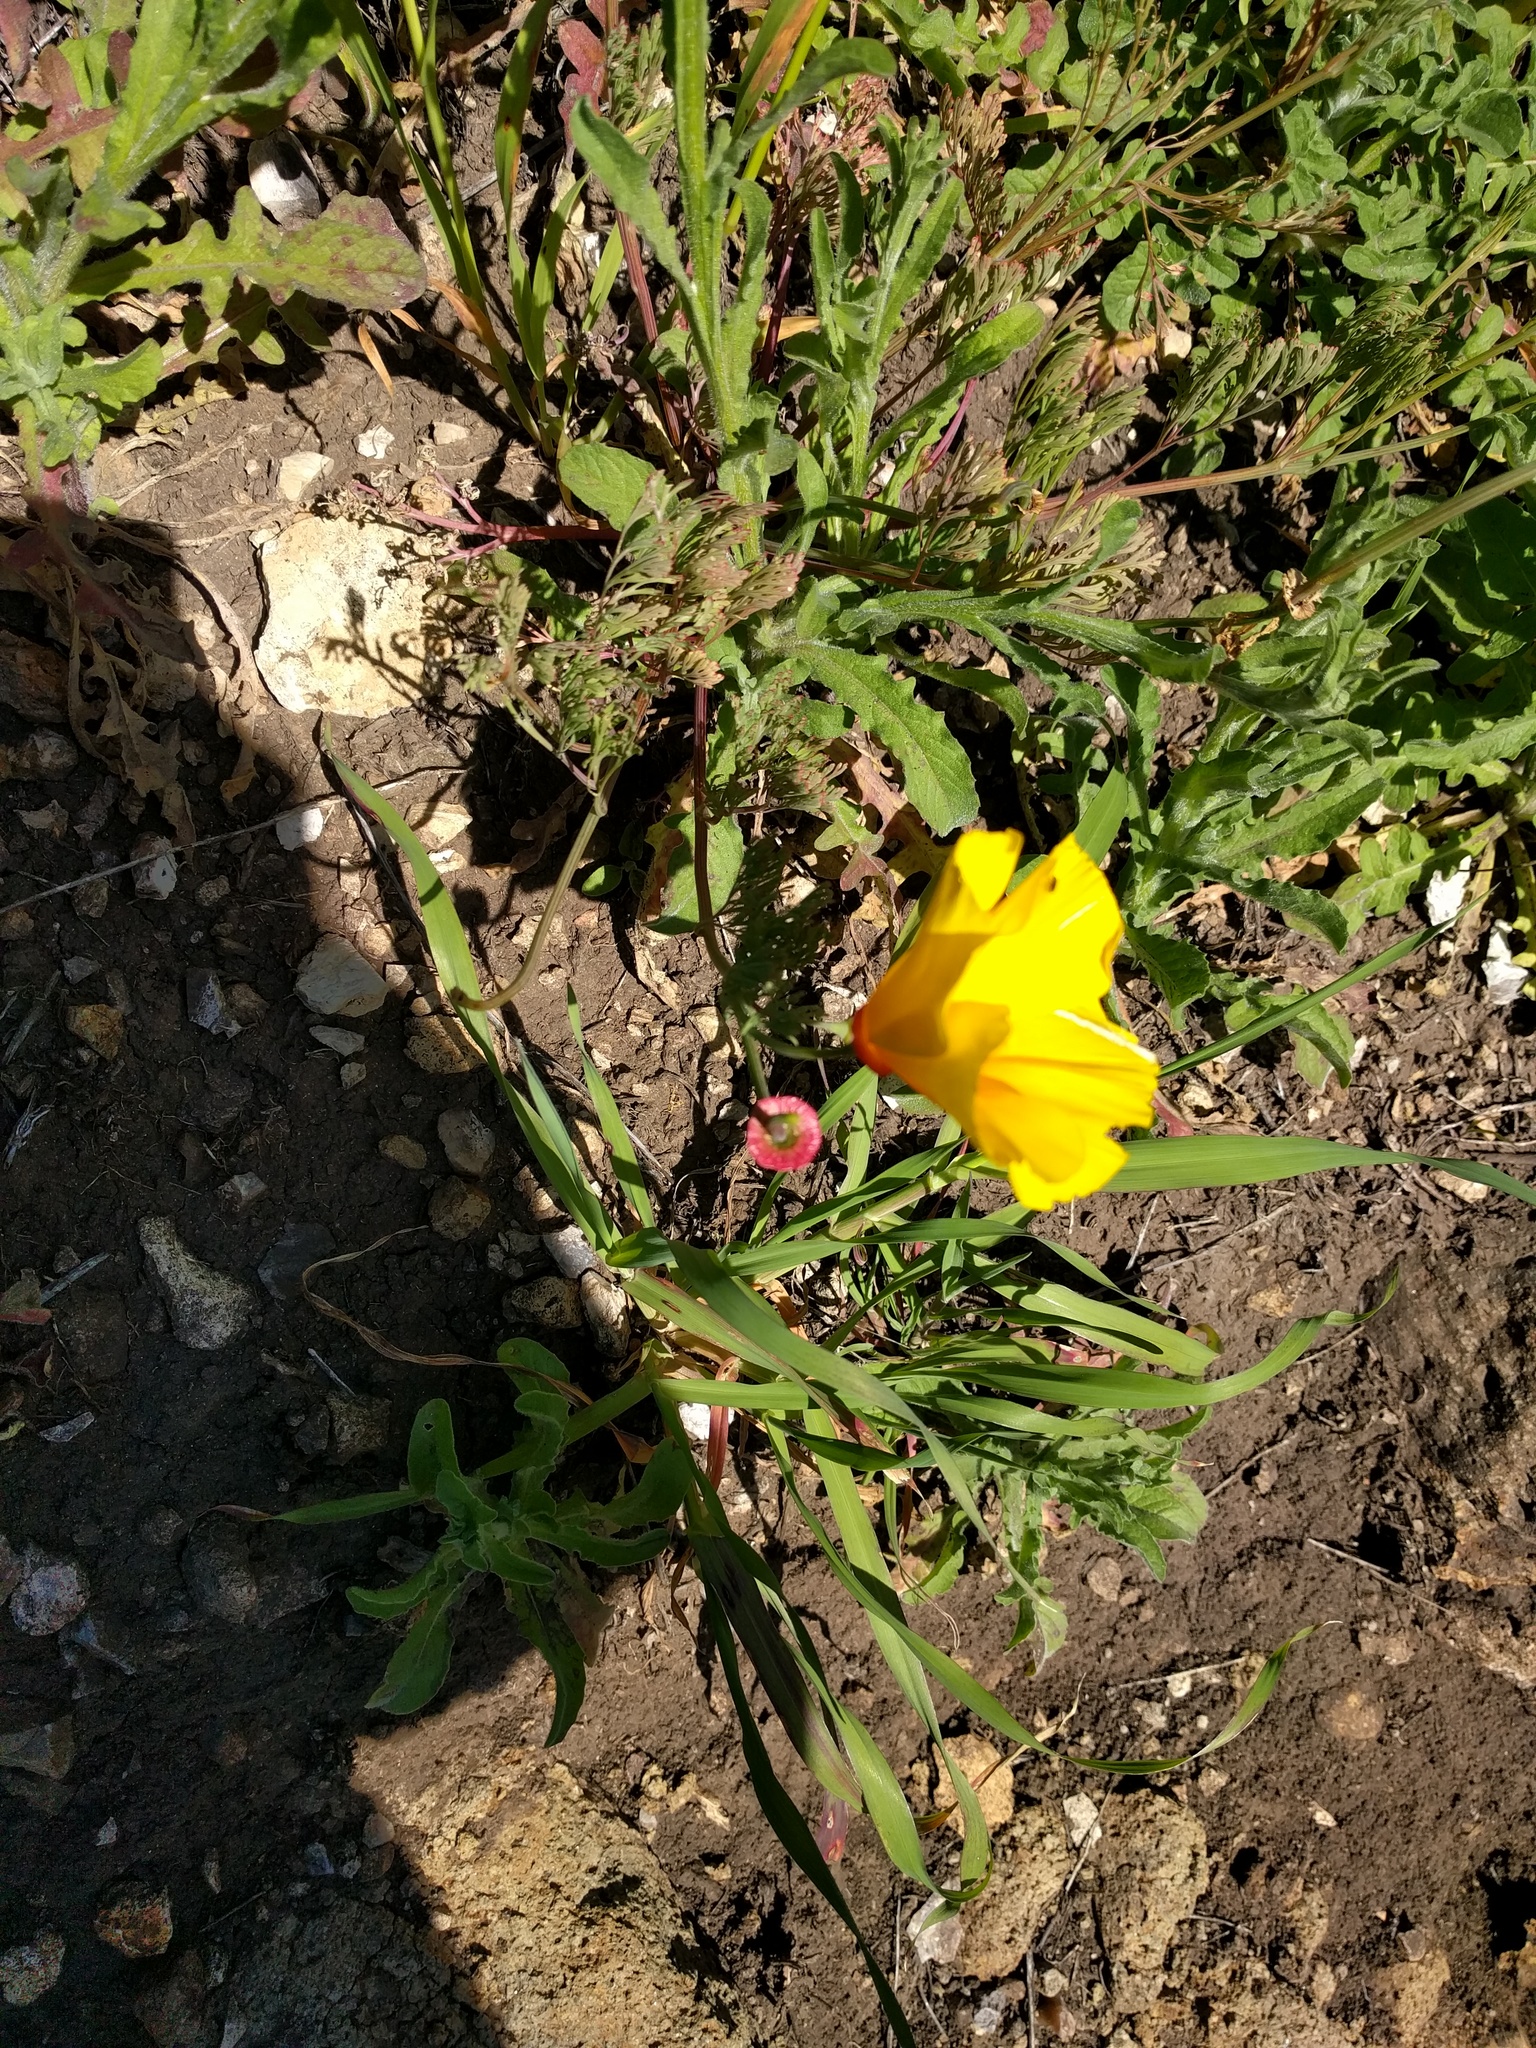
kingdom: Plantae
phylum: Tracheophyta
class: Magnoliopsida
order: Ranunculales
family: Papaveraceae
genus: Eschscholzia
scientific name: Eschscholzia californica
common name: California poppy
